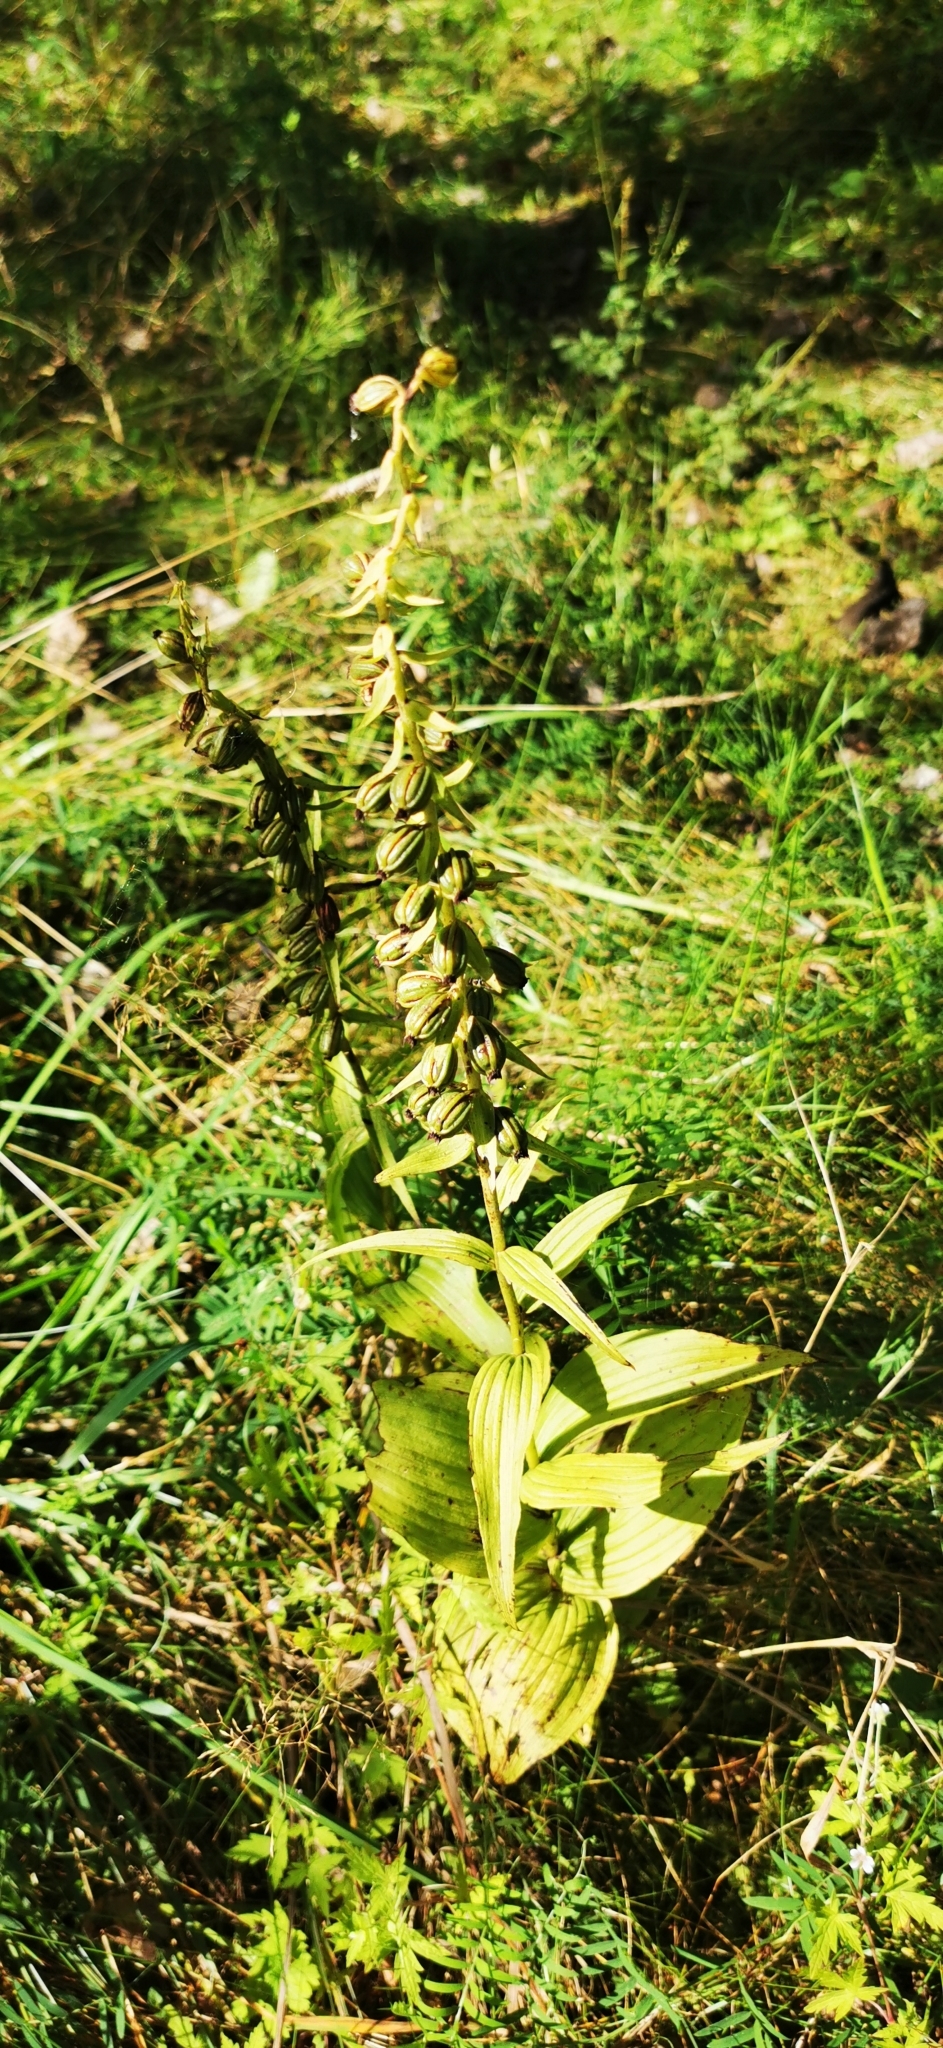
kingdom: Plantae
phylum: Tracheophyta
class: Liliopsida
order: Asparagales
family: Orchidaceae
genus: Epipactis
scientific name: Epipactis helleborine
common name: Broad-leaved helleborine
